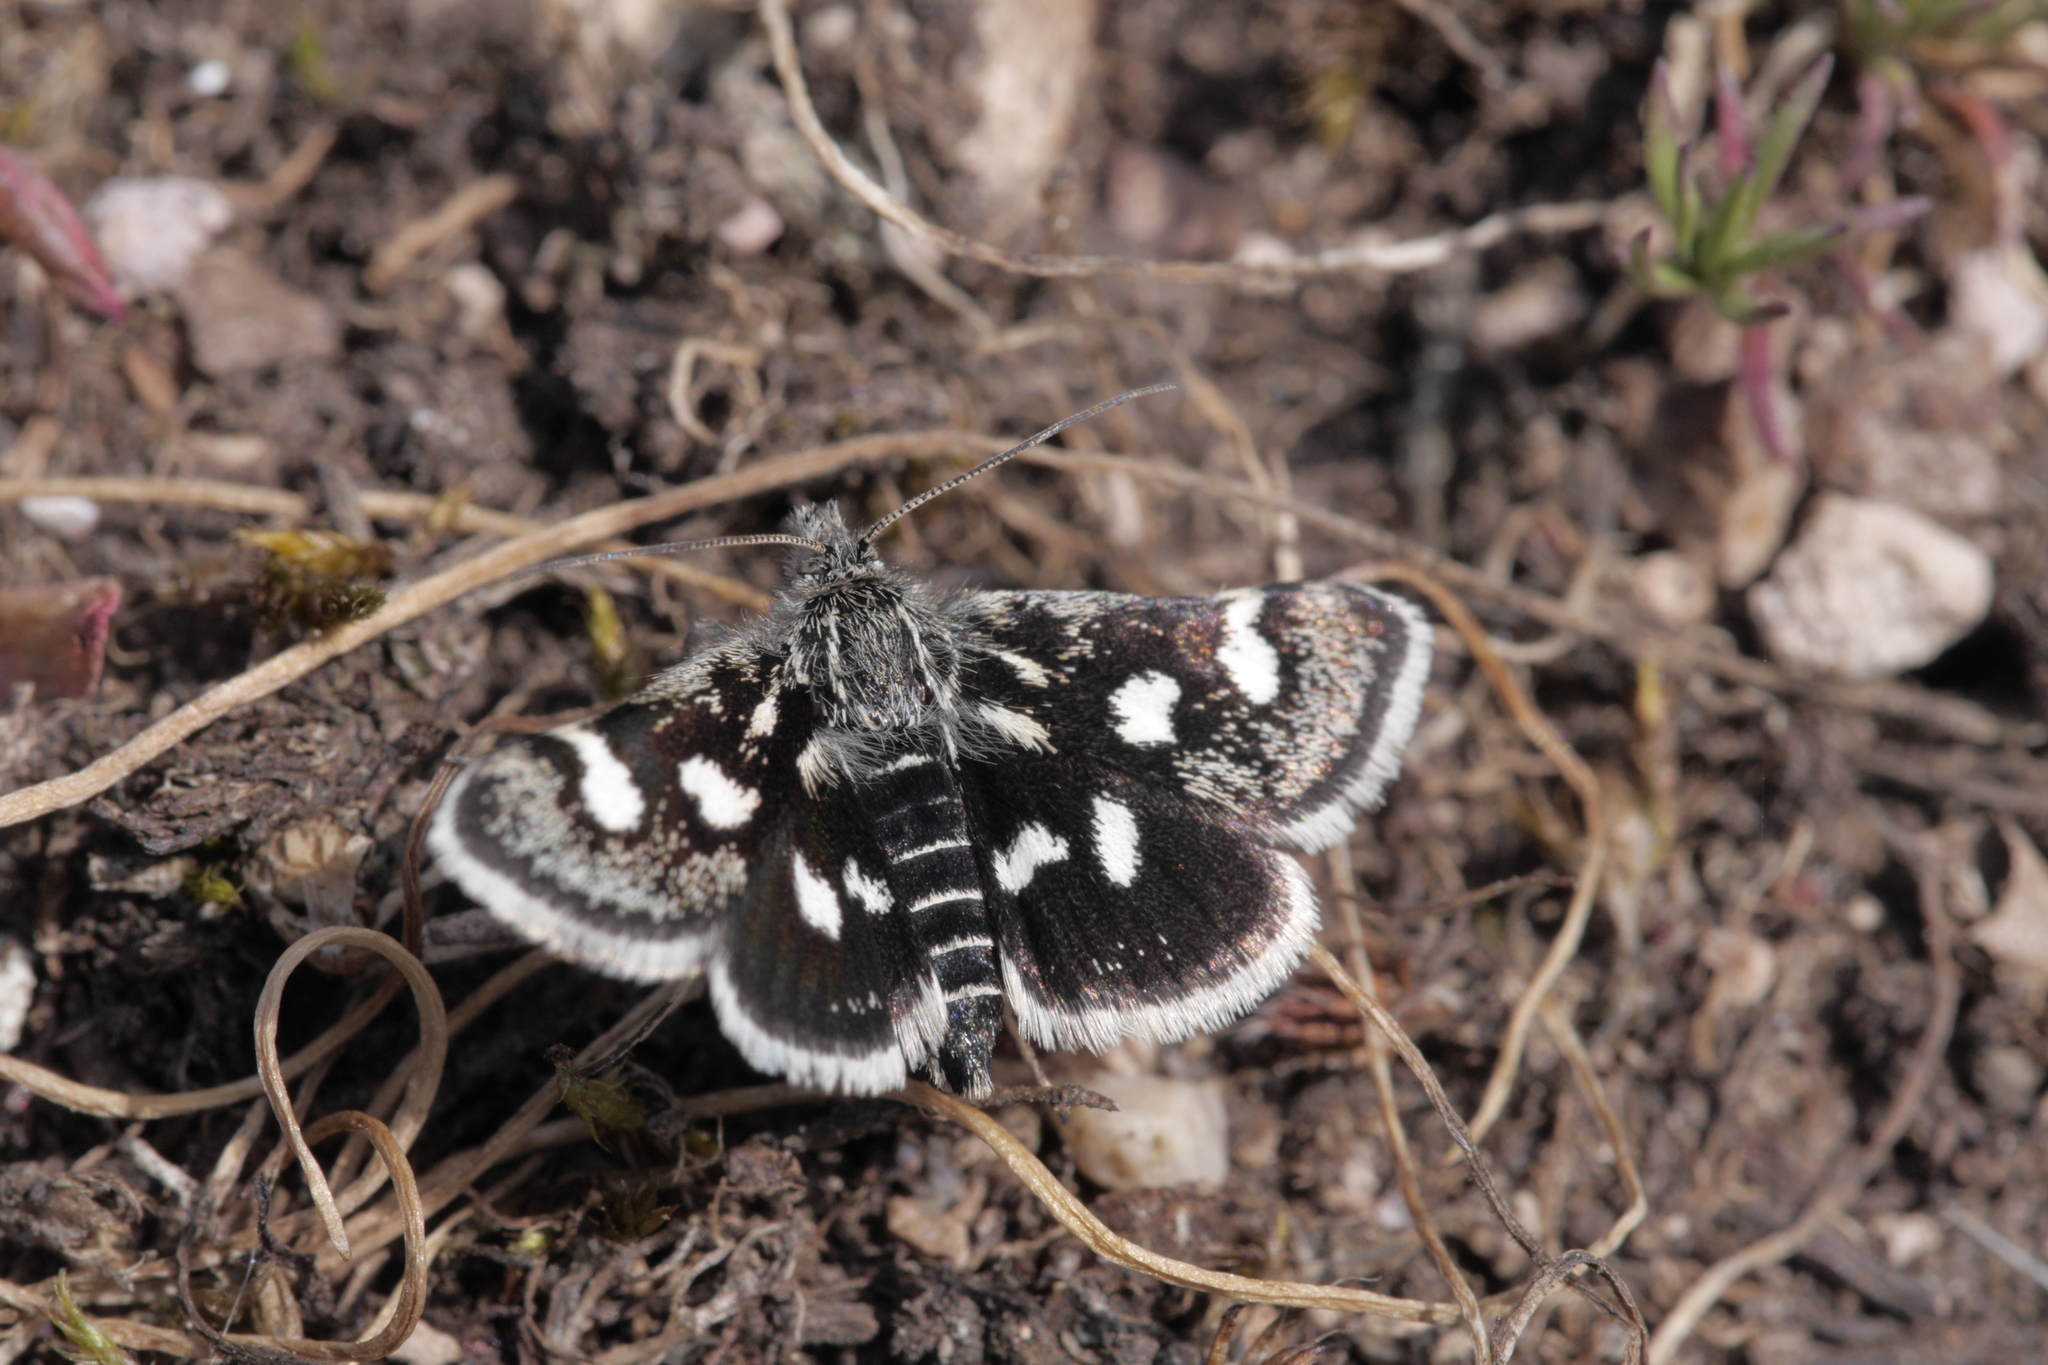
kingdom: Animalia
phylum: Arthropoda
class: Insecta
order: Lepidoptera
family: Crambidae
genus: Eurrhypis
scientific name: Eurrhypis pollinalis
